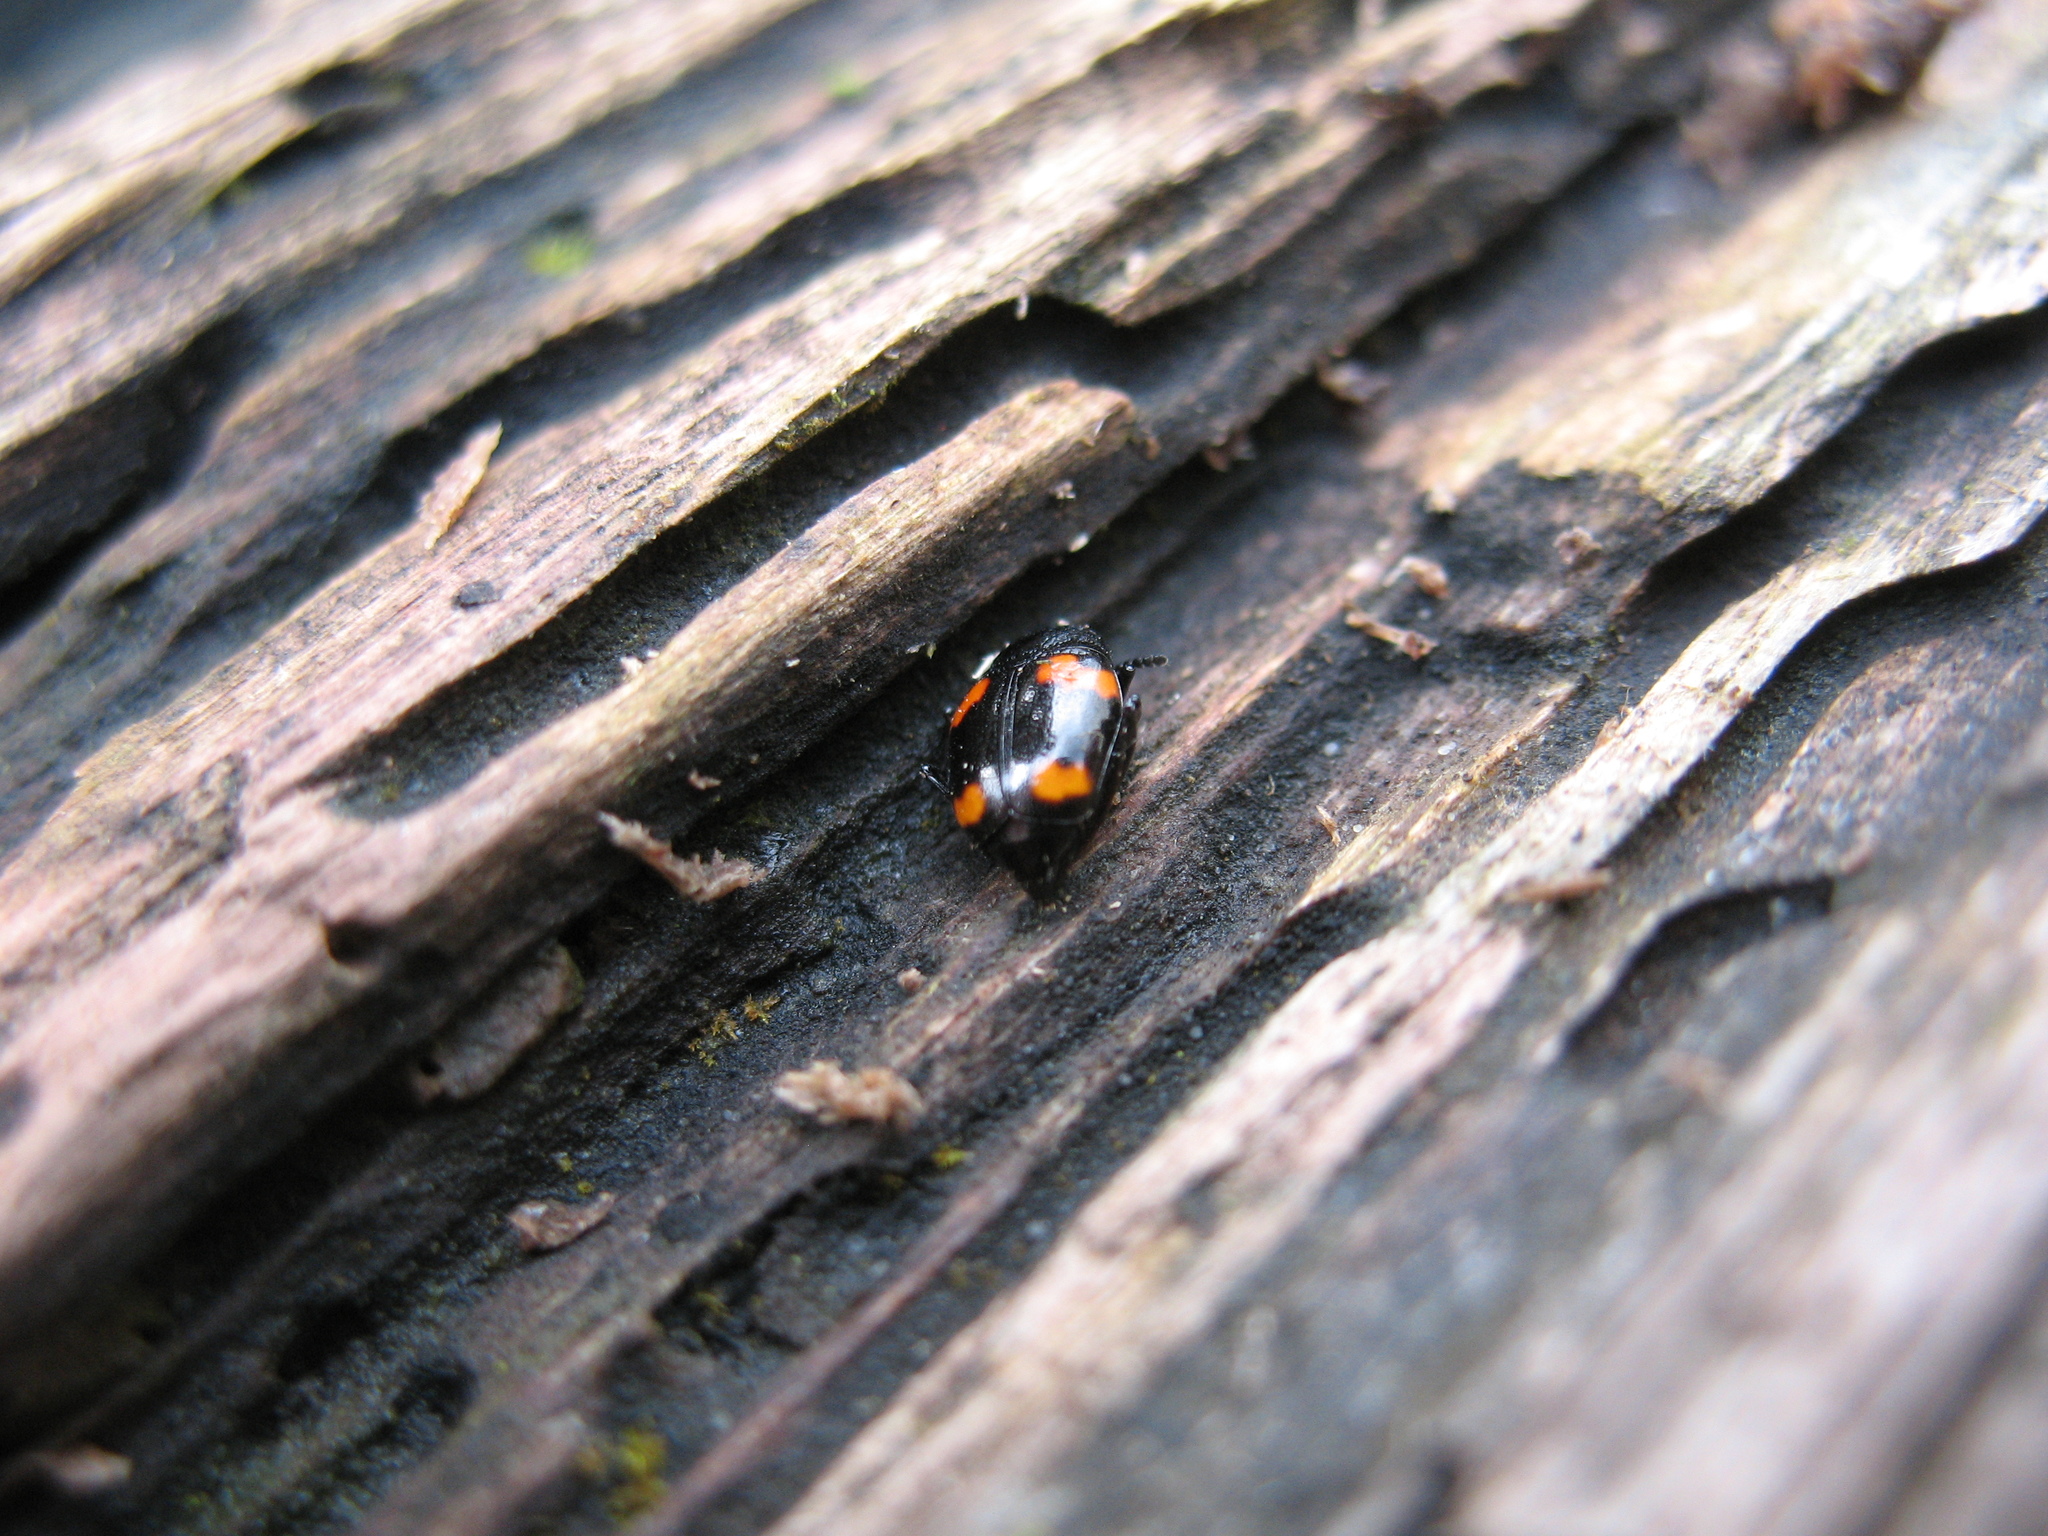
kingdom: Animalia
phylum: Arthropoda
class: Insecta
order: Coleoptera
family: Staphylinidae
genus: Scaphidium
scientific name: Scaphidium quadrimaculatum
